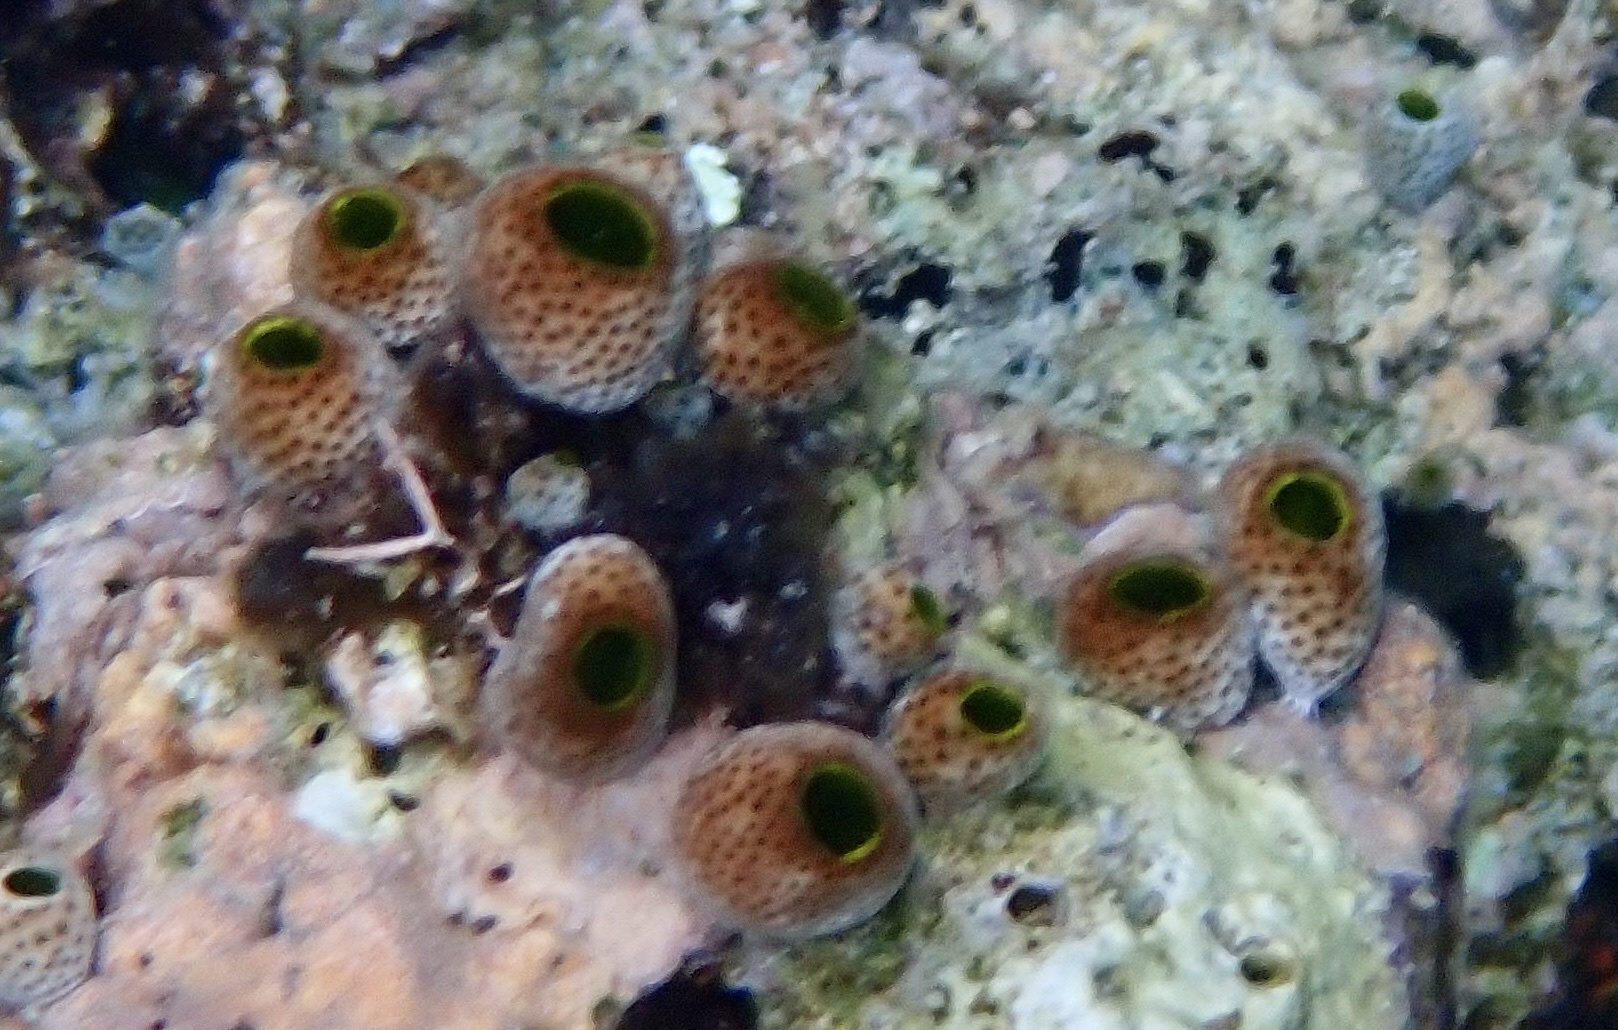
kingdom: Animalia
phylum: Chordata
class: Ascidiacea
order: Aplousobranchia
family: Didemnidae
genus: Didemnum
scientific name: Didemnum molle
